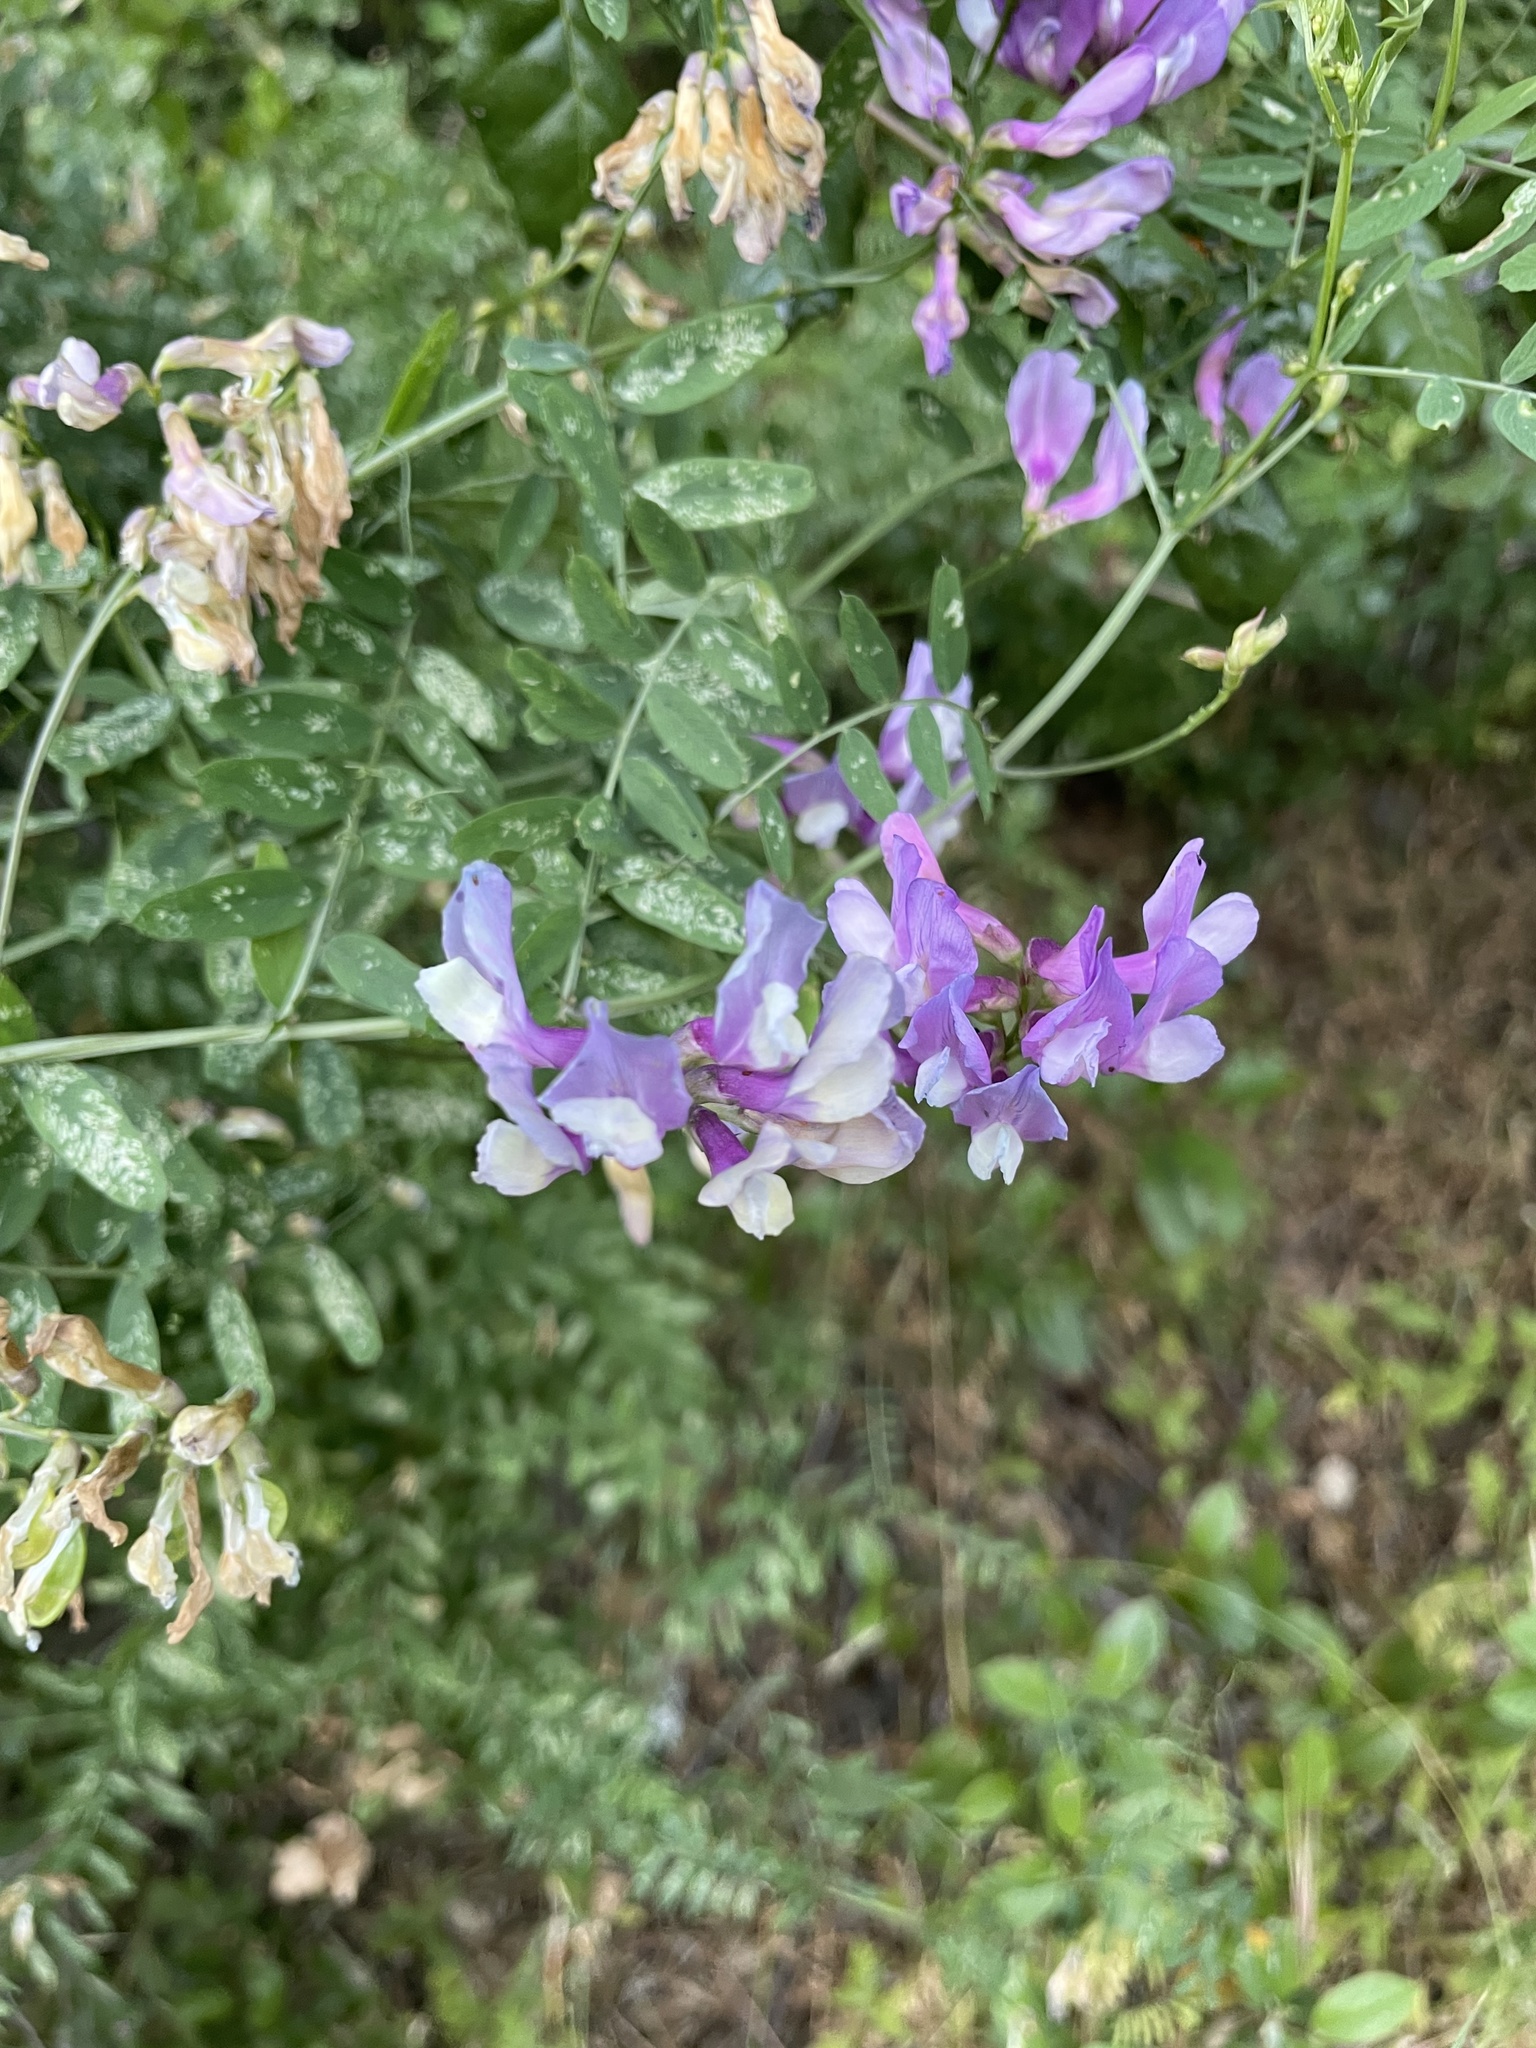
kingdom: Plantae
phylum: Tracheophyta
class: Magnoliopsida
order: Fabales
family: Fabaceae
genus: Vicia
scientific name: Vicia americana
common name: American vetch
